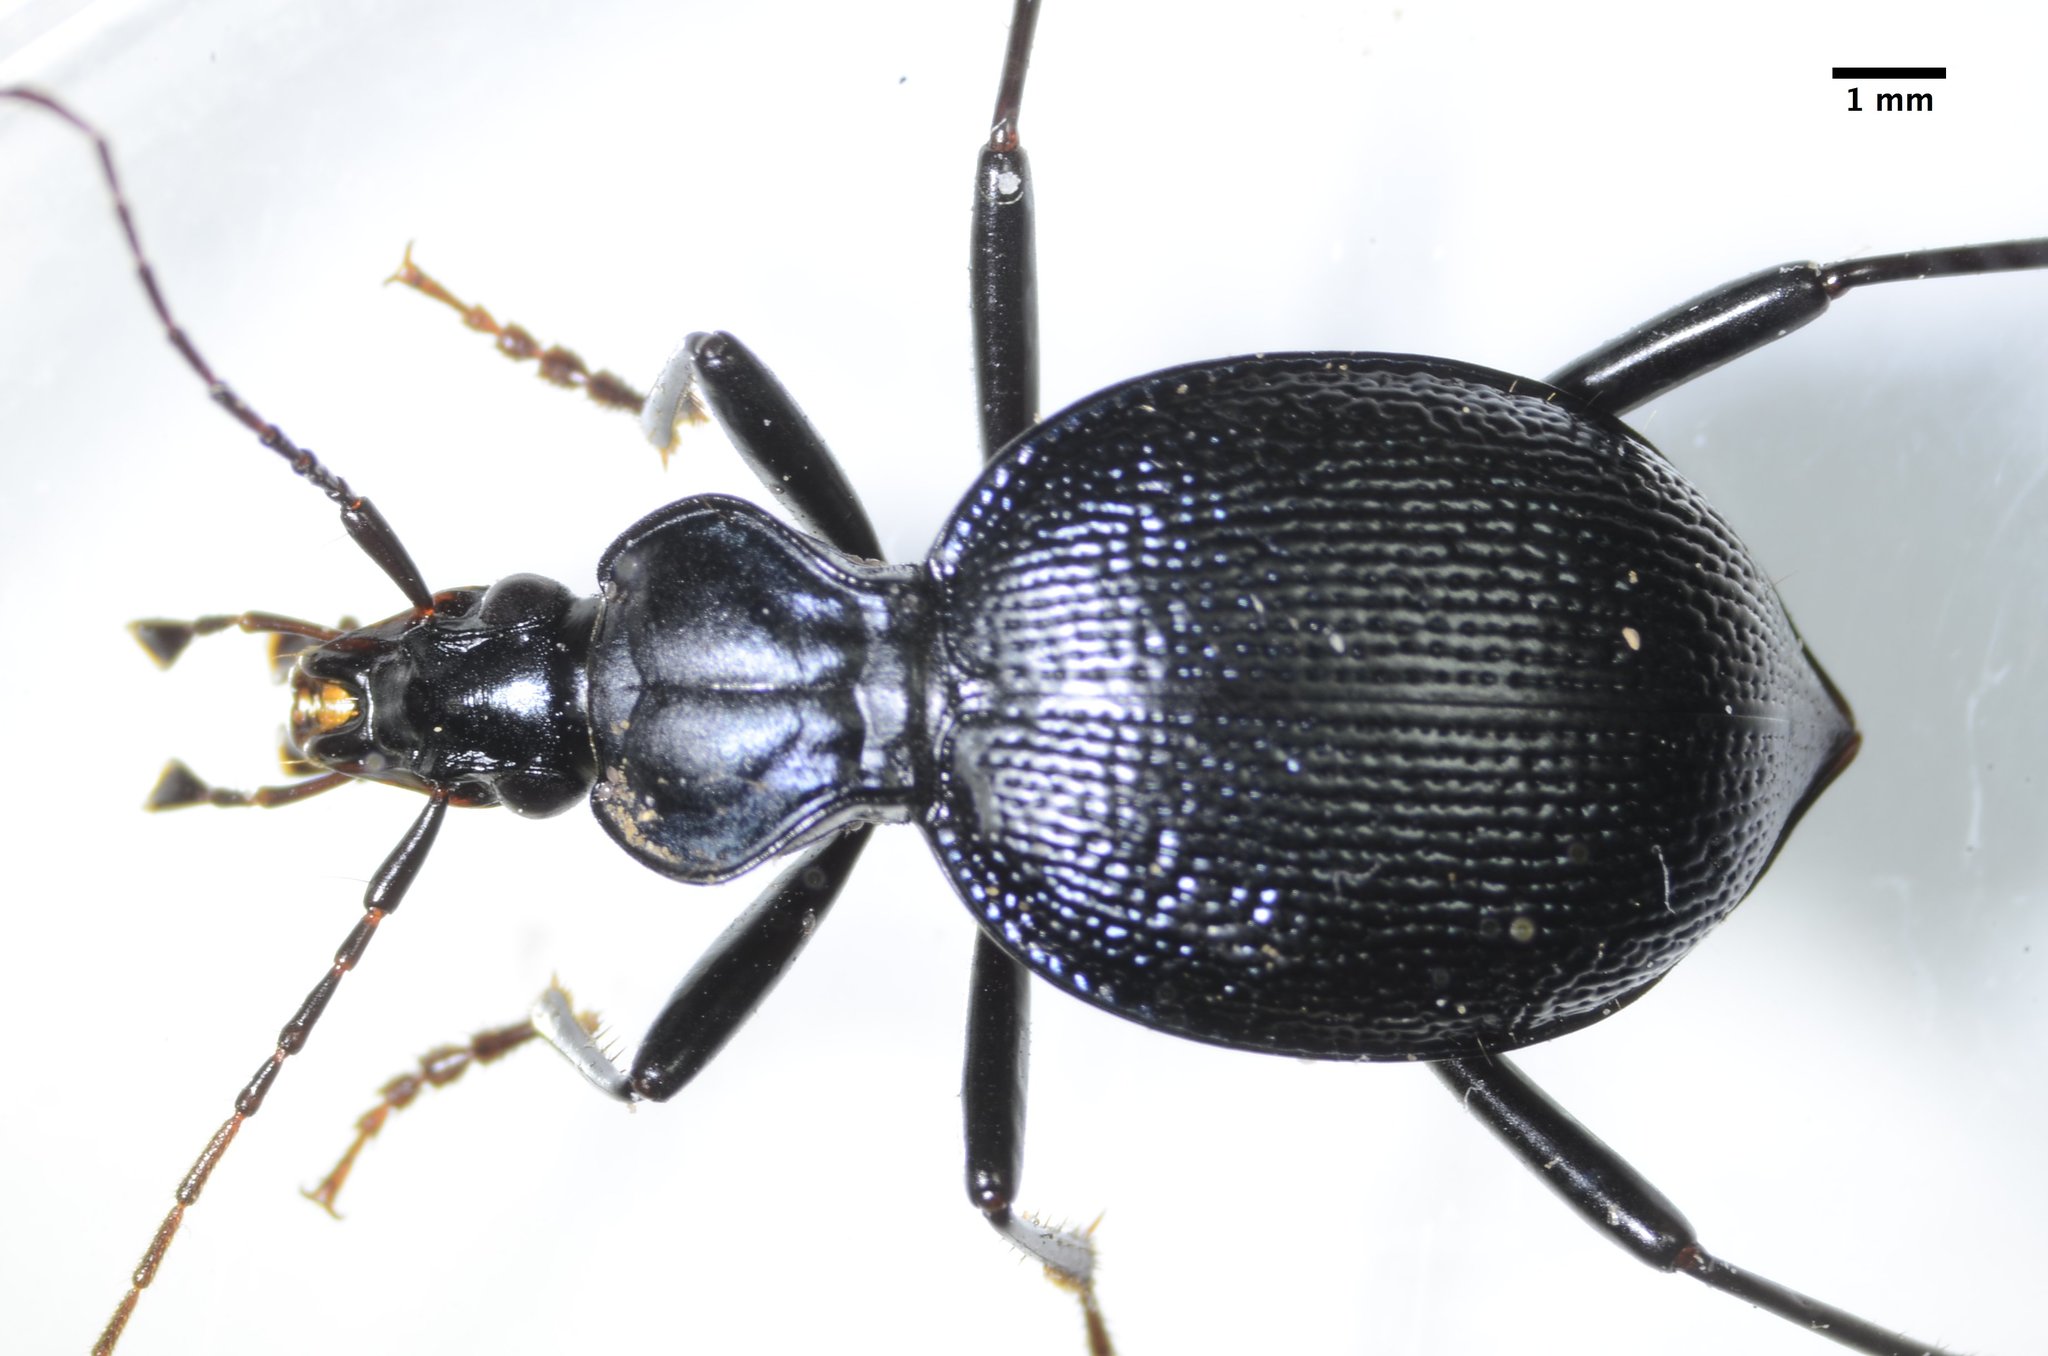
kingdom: Animalia
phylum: Arthropoda
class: Insecta
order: Coleoptera
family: Carabidae
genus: Scaphinotus
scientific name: Scaphinotus interruptus
